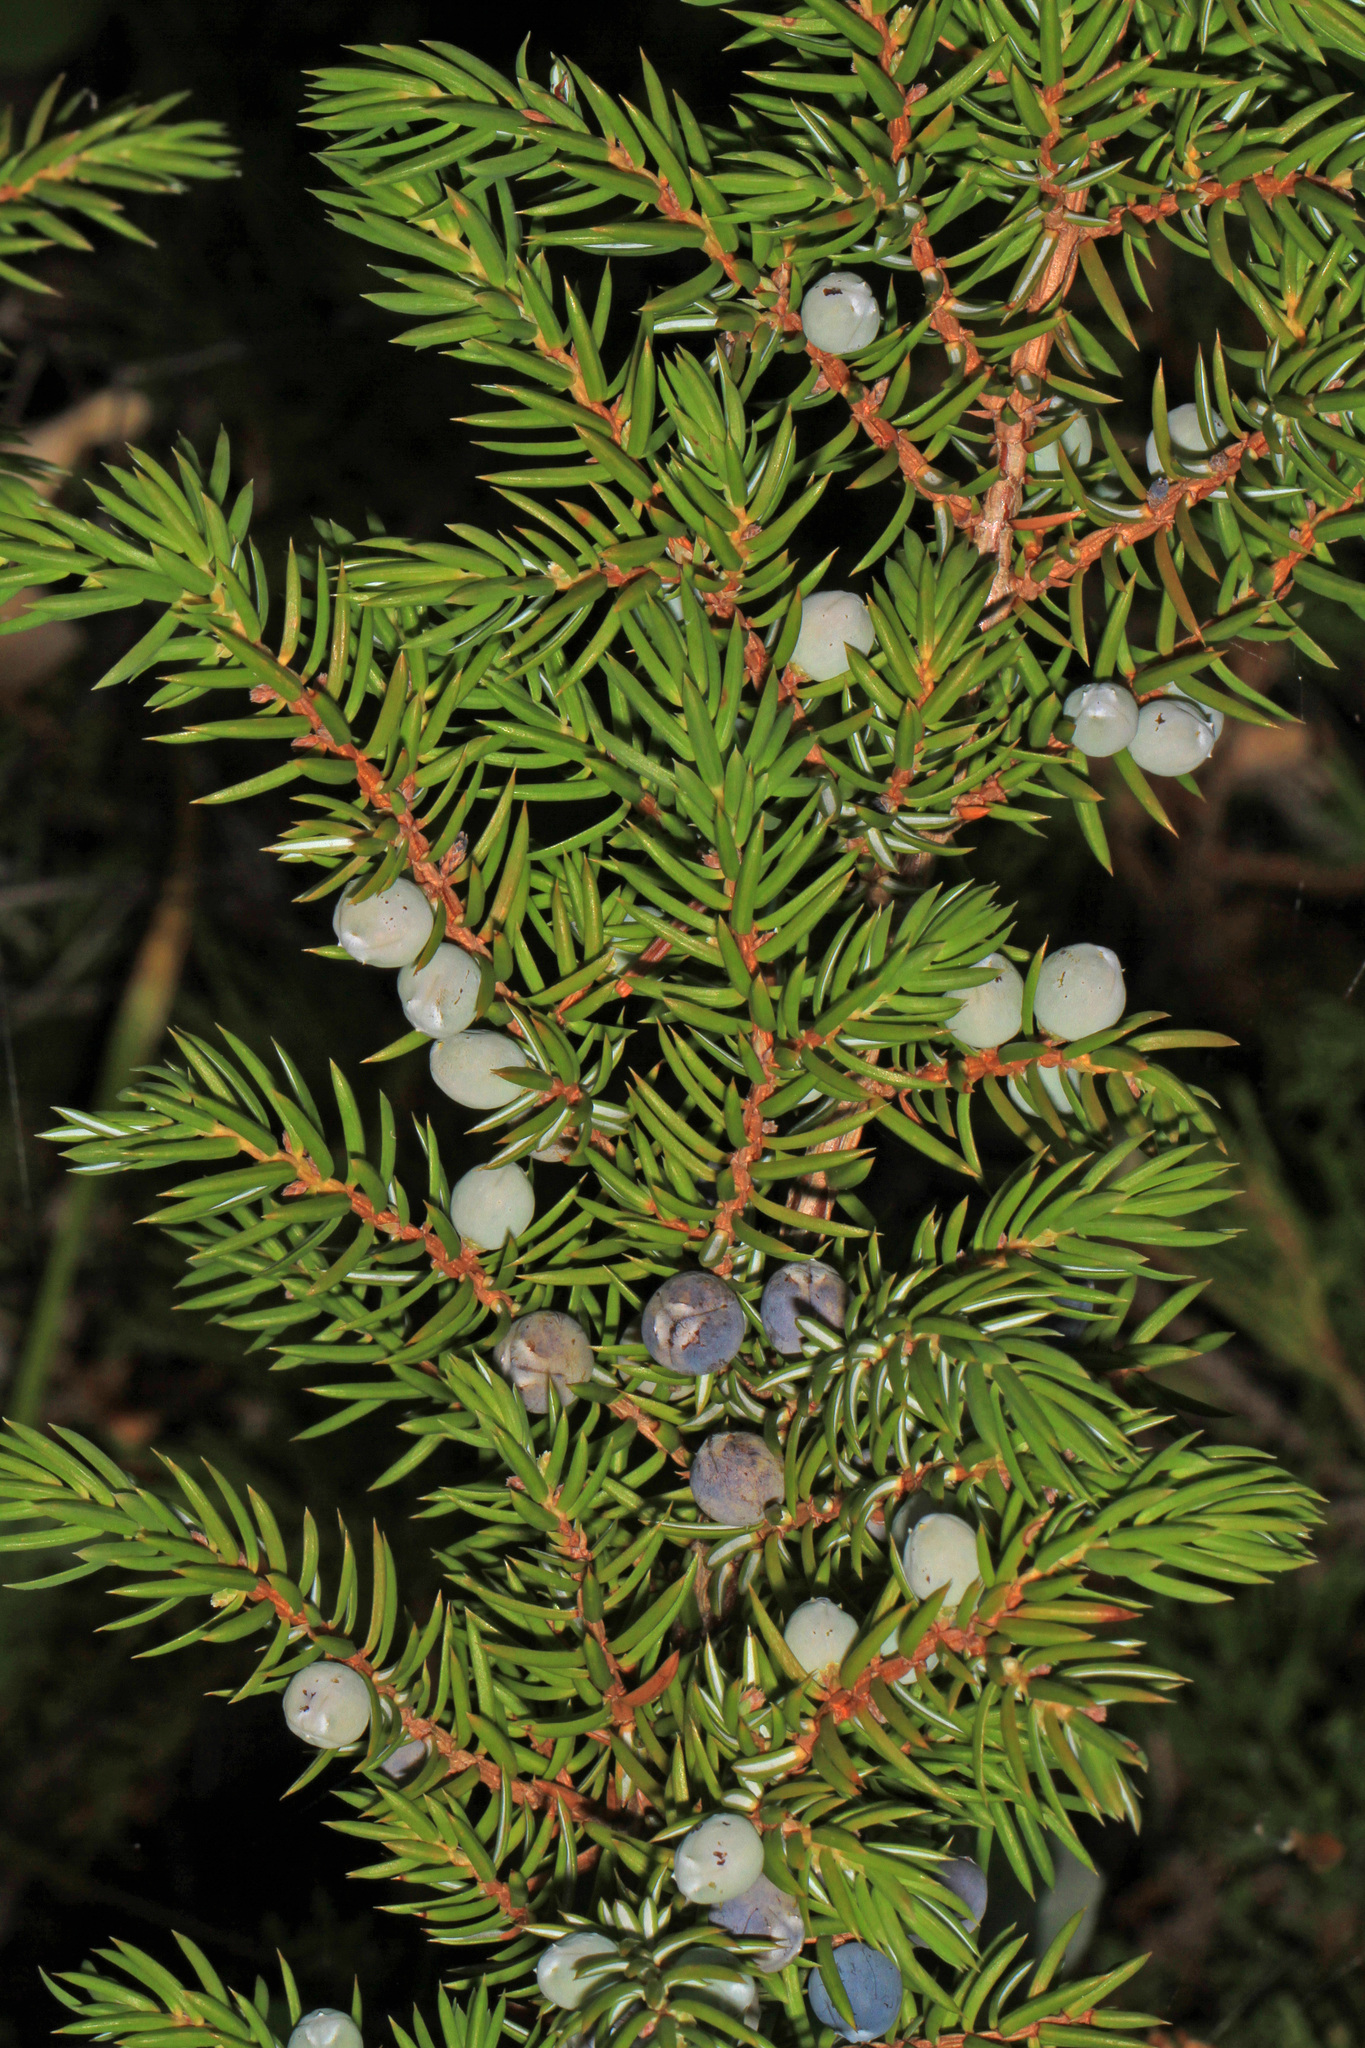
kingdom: Plantae
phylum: Tracheophyta
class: Pinopsida
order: Pinales
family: Cupressaceae
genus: Juniperus
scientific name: Juniperus communis
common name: Common juniper
